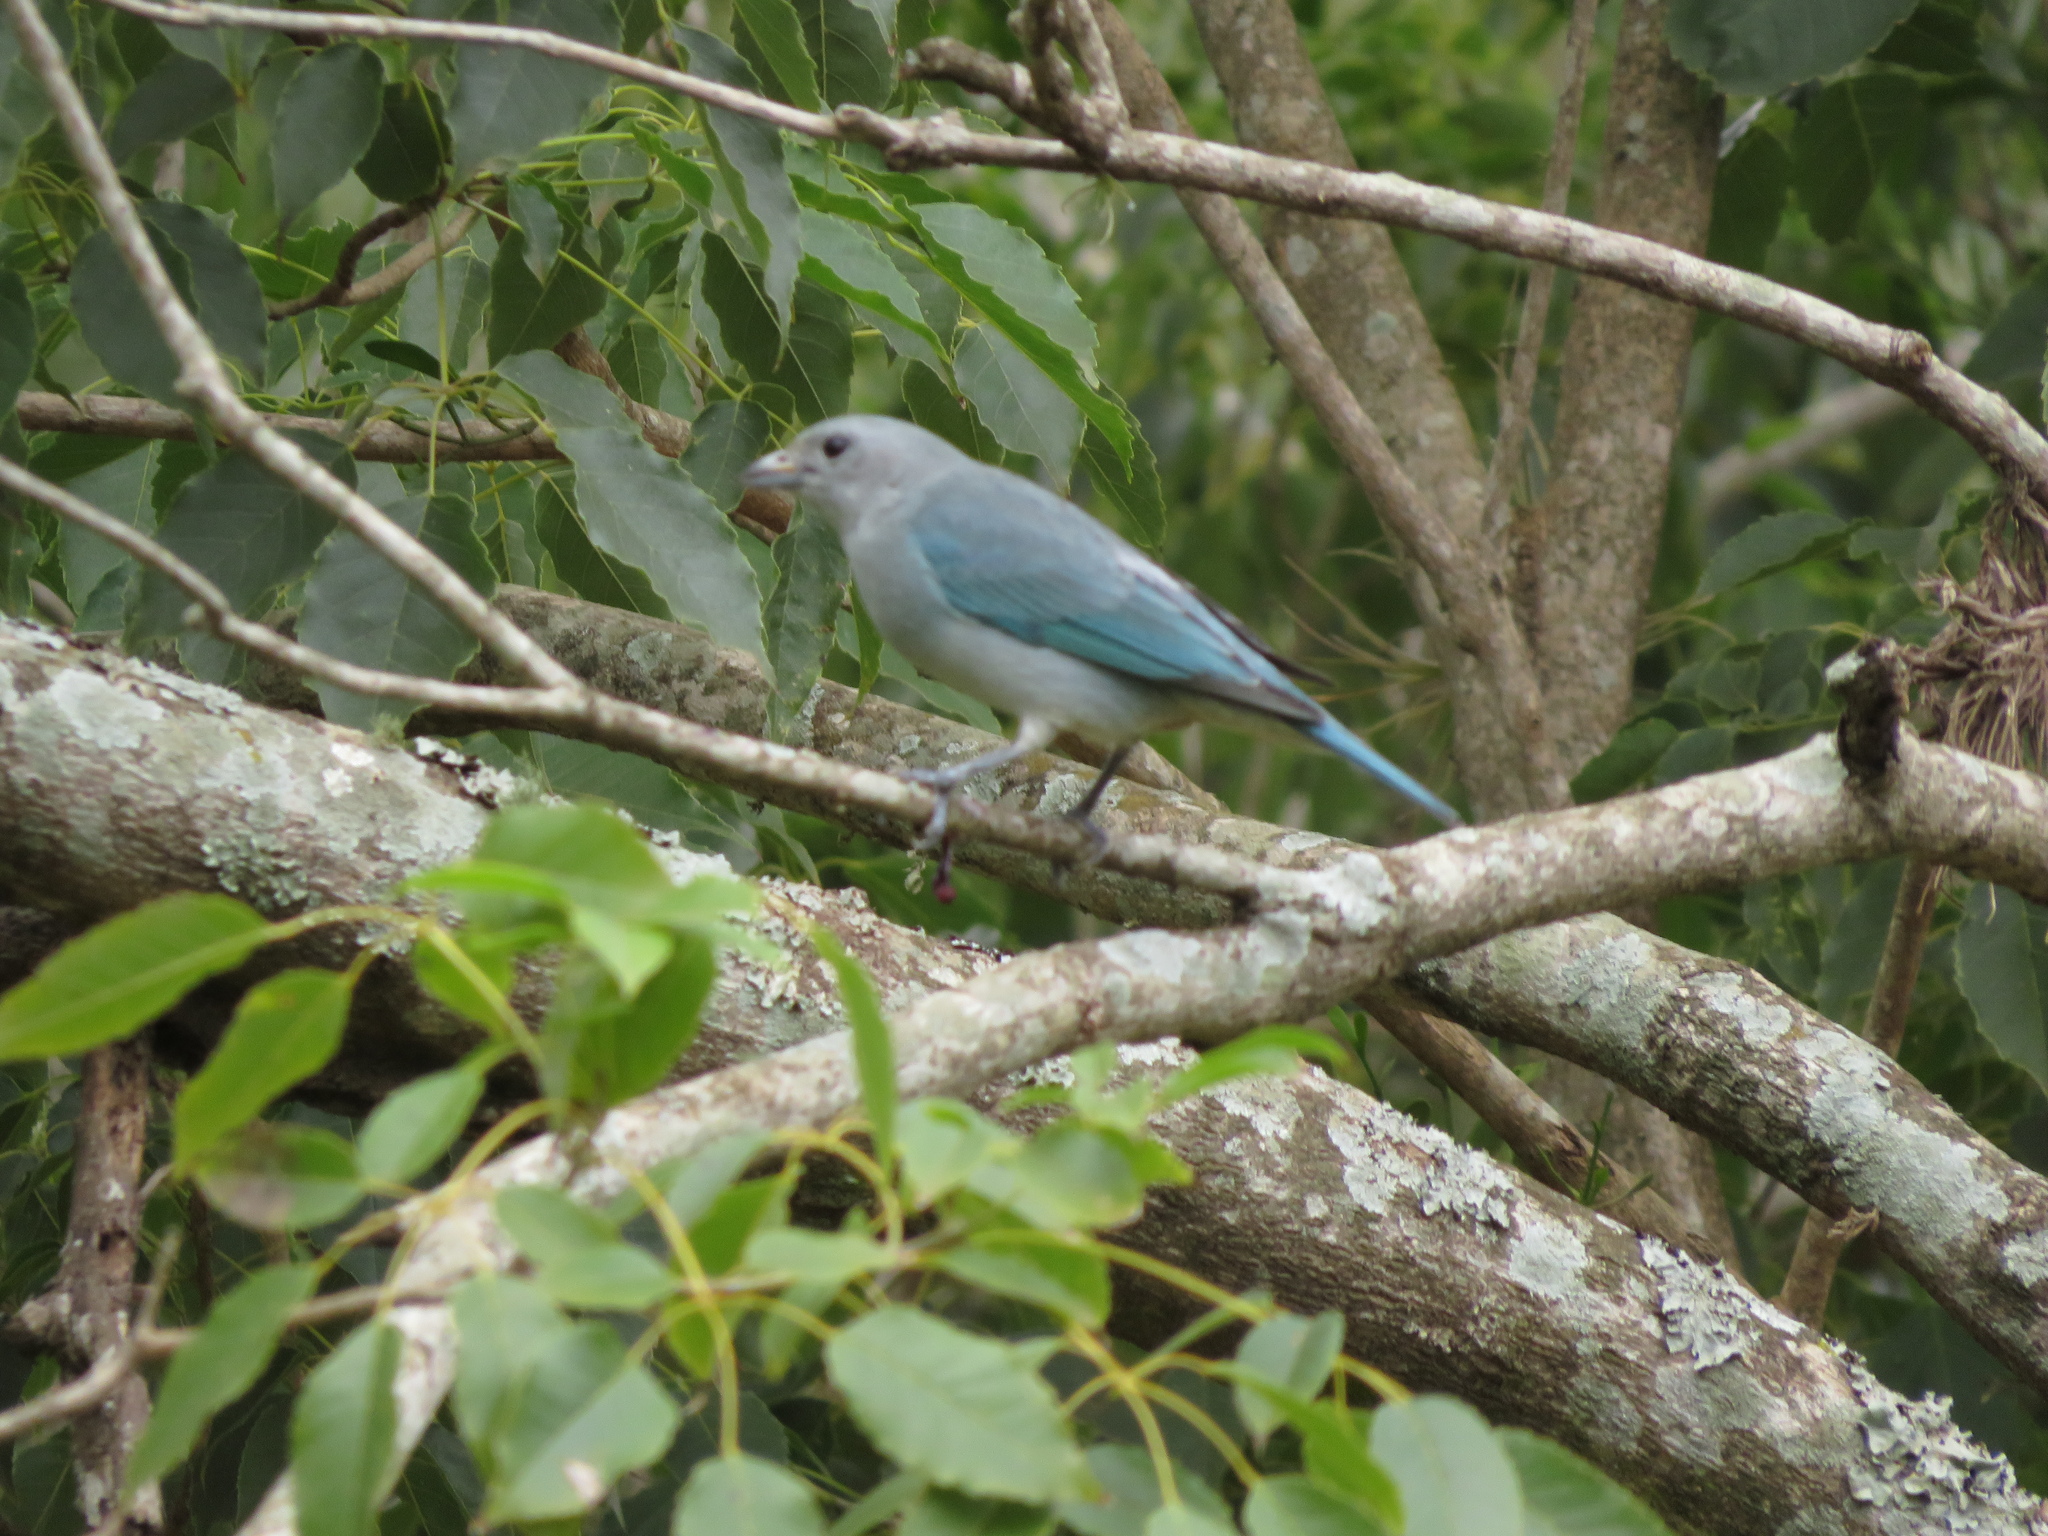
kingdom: Animalia
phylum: Chordata
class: Aves
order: Passeriformes
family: Thraupidae
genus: Thraupis
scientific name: Thraupis sayaca
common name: Sayaca tanager
